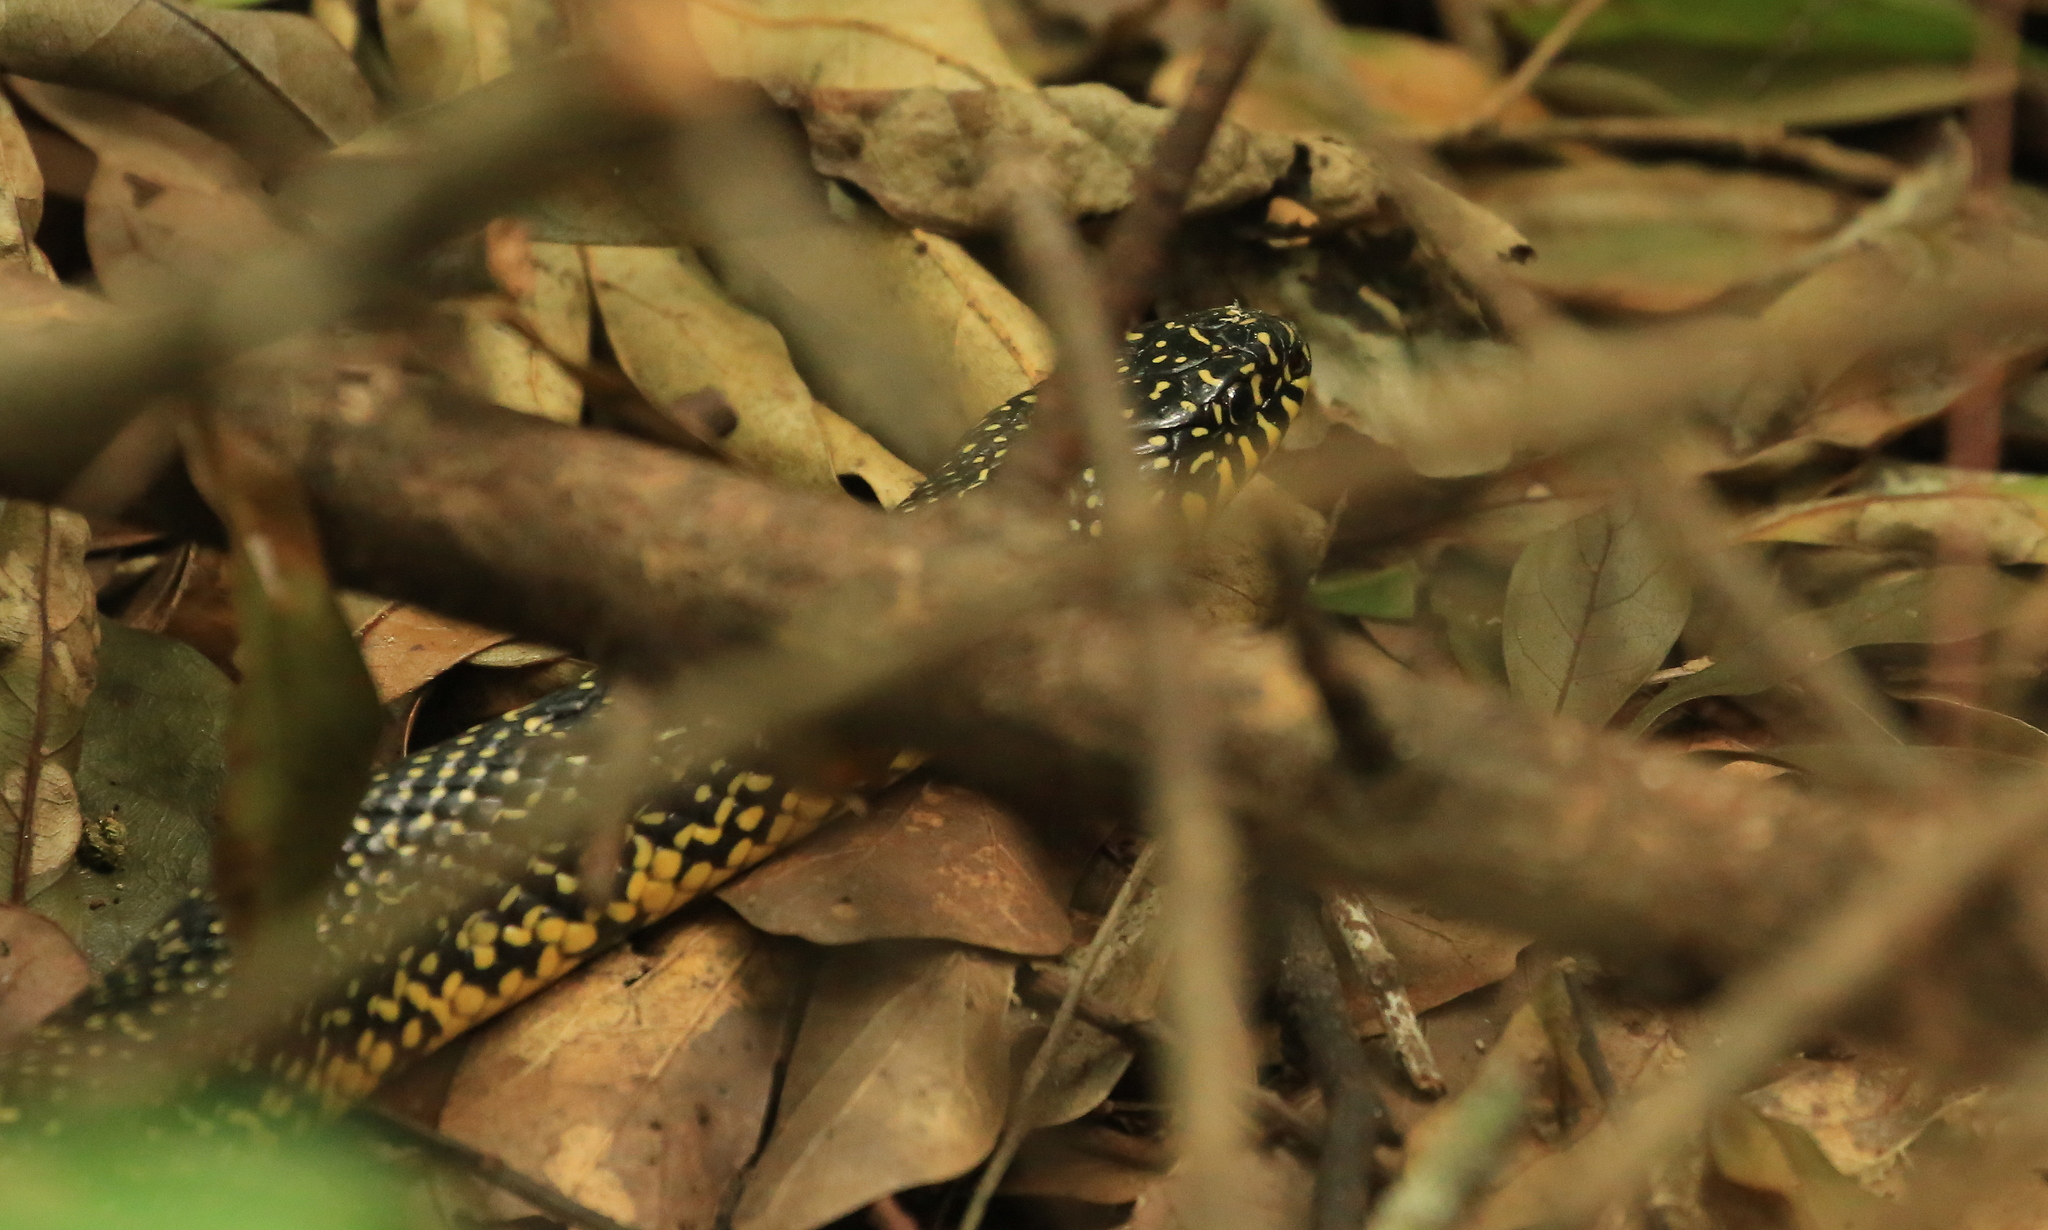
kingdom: Animalia
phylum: Chordata
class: Squamata
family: Colubridae
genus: Lampropeltis
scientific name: Lampropeltis holbrooki
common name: Speckled kingsnake
